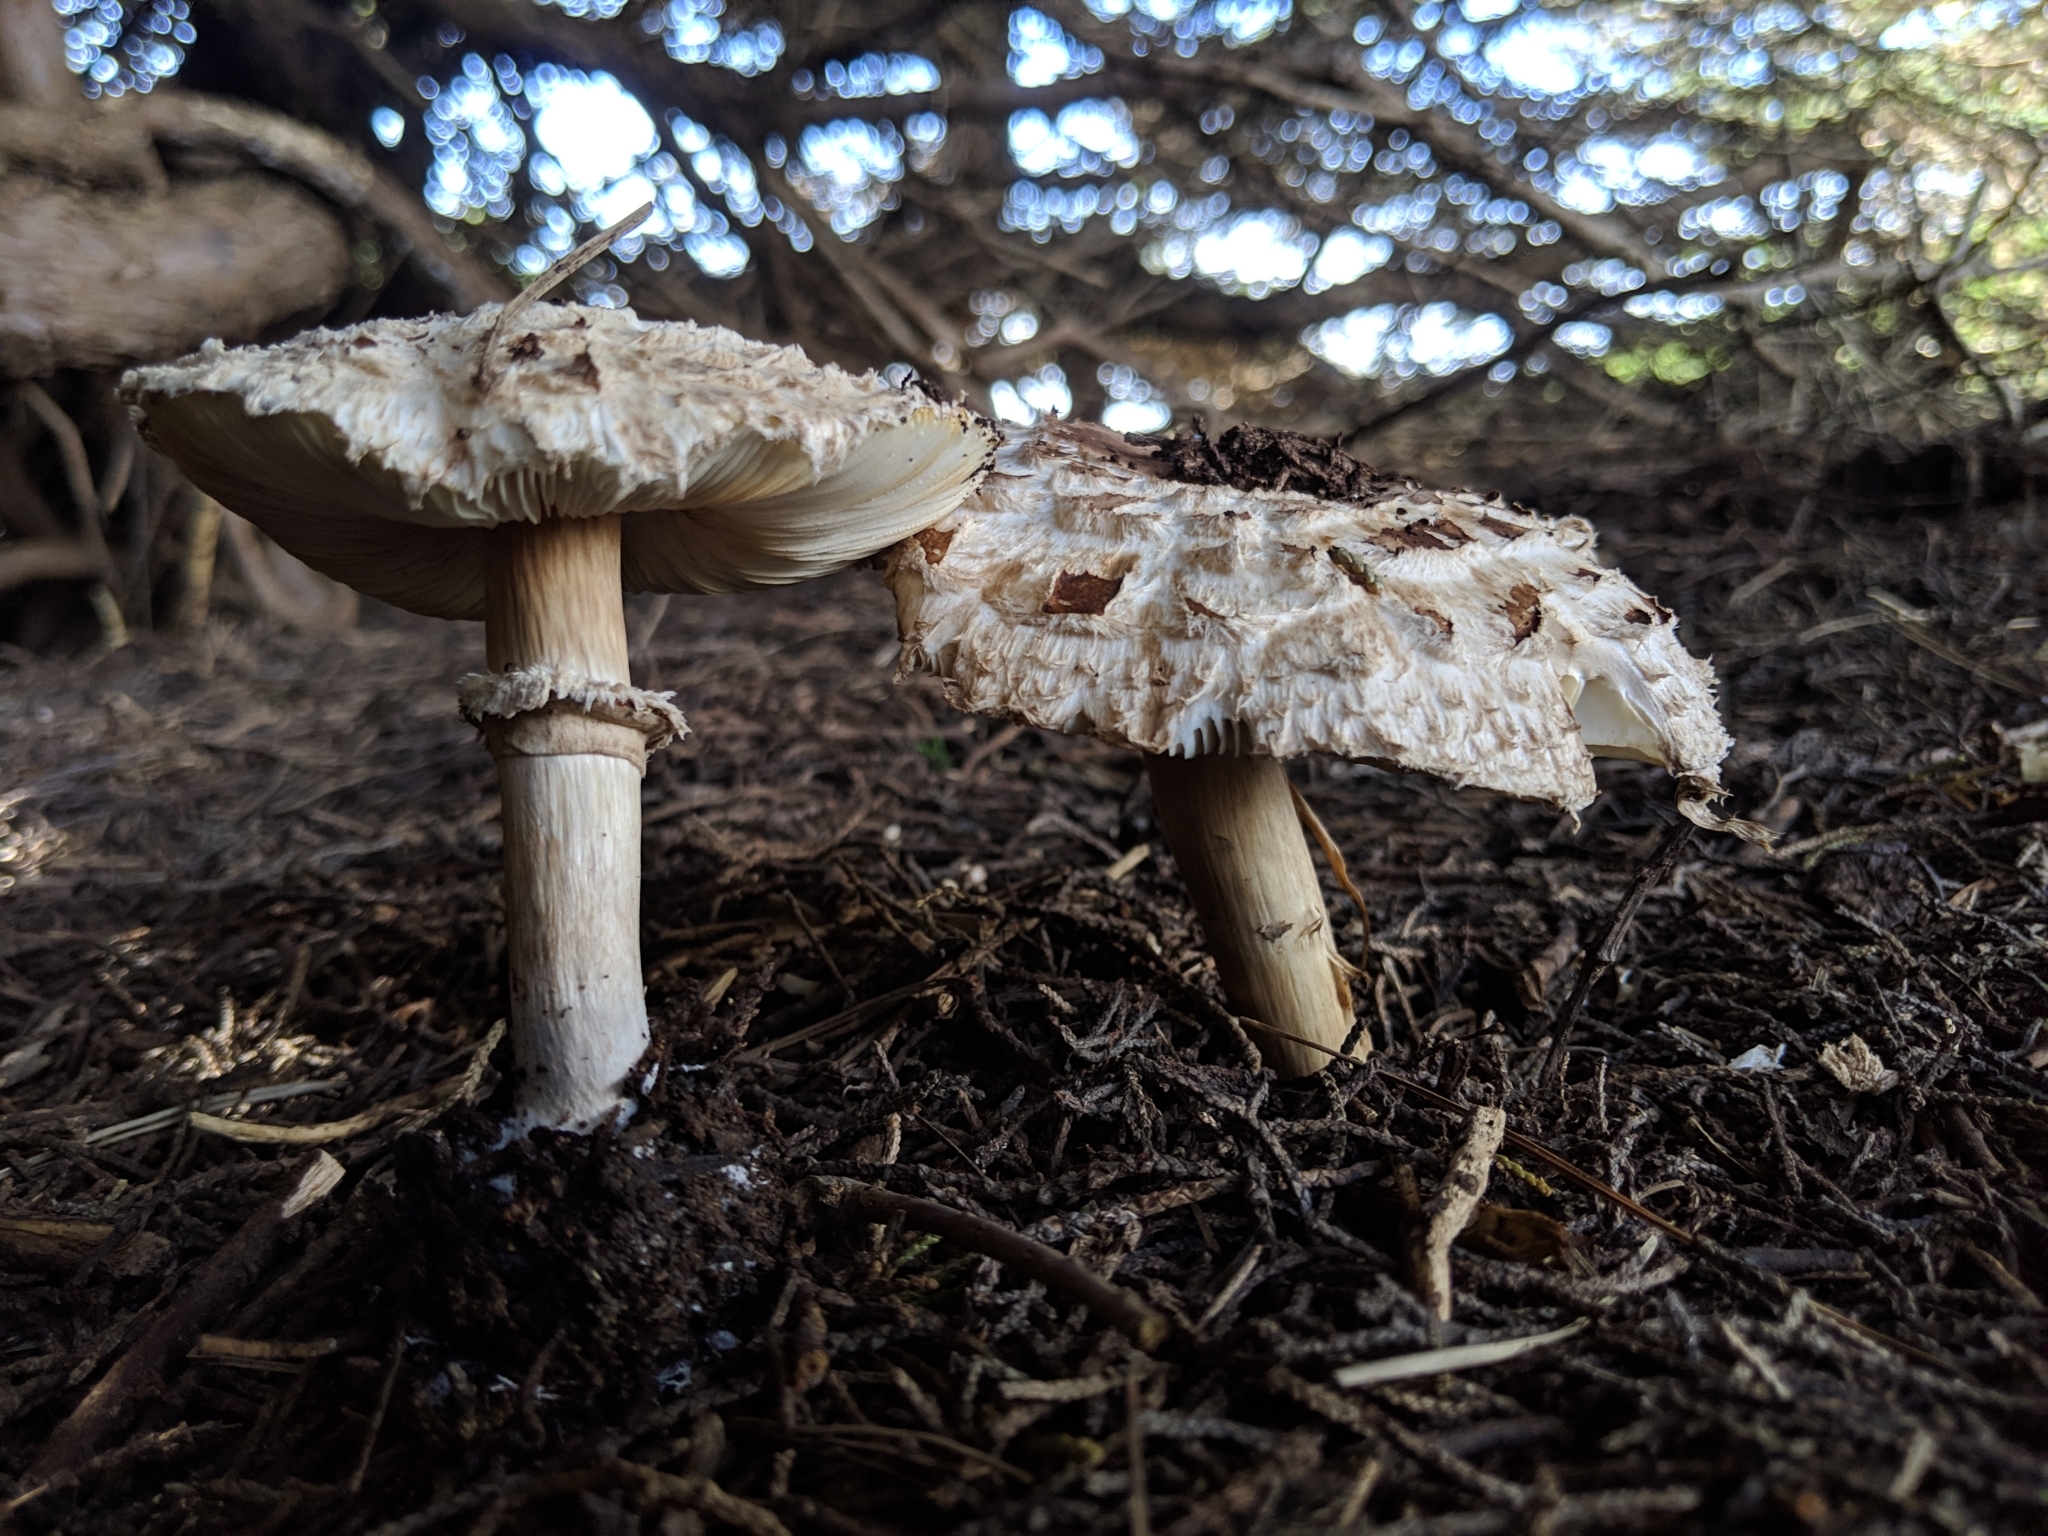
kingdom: Fungi
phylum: Basidiomycota
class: Agaricomycetes
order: Agaricales
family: Agaricaceae
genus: Chlorophyllum
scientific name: Chlorophyllum brunneum
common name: Brown parasol
